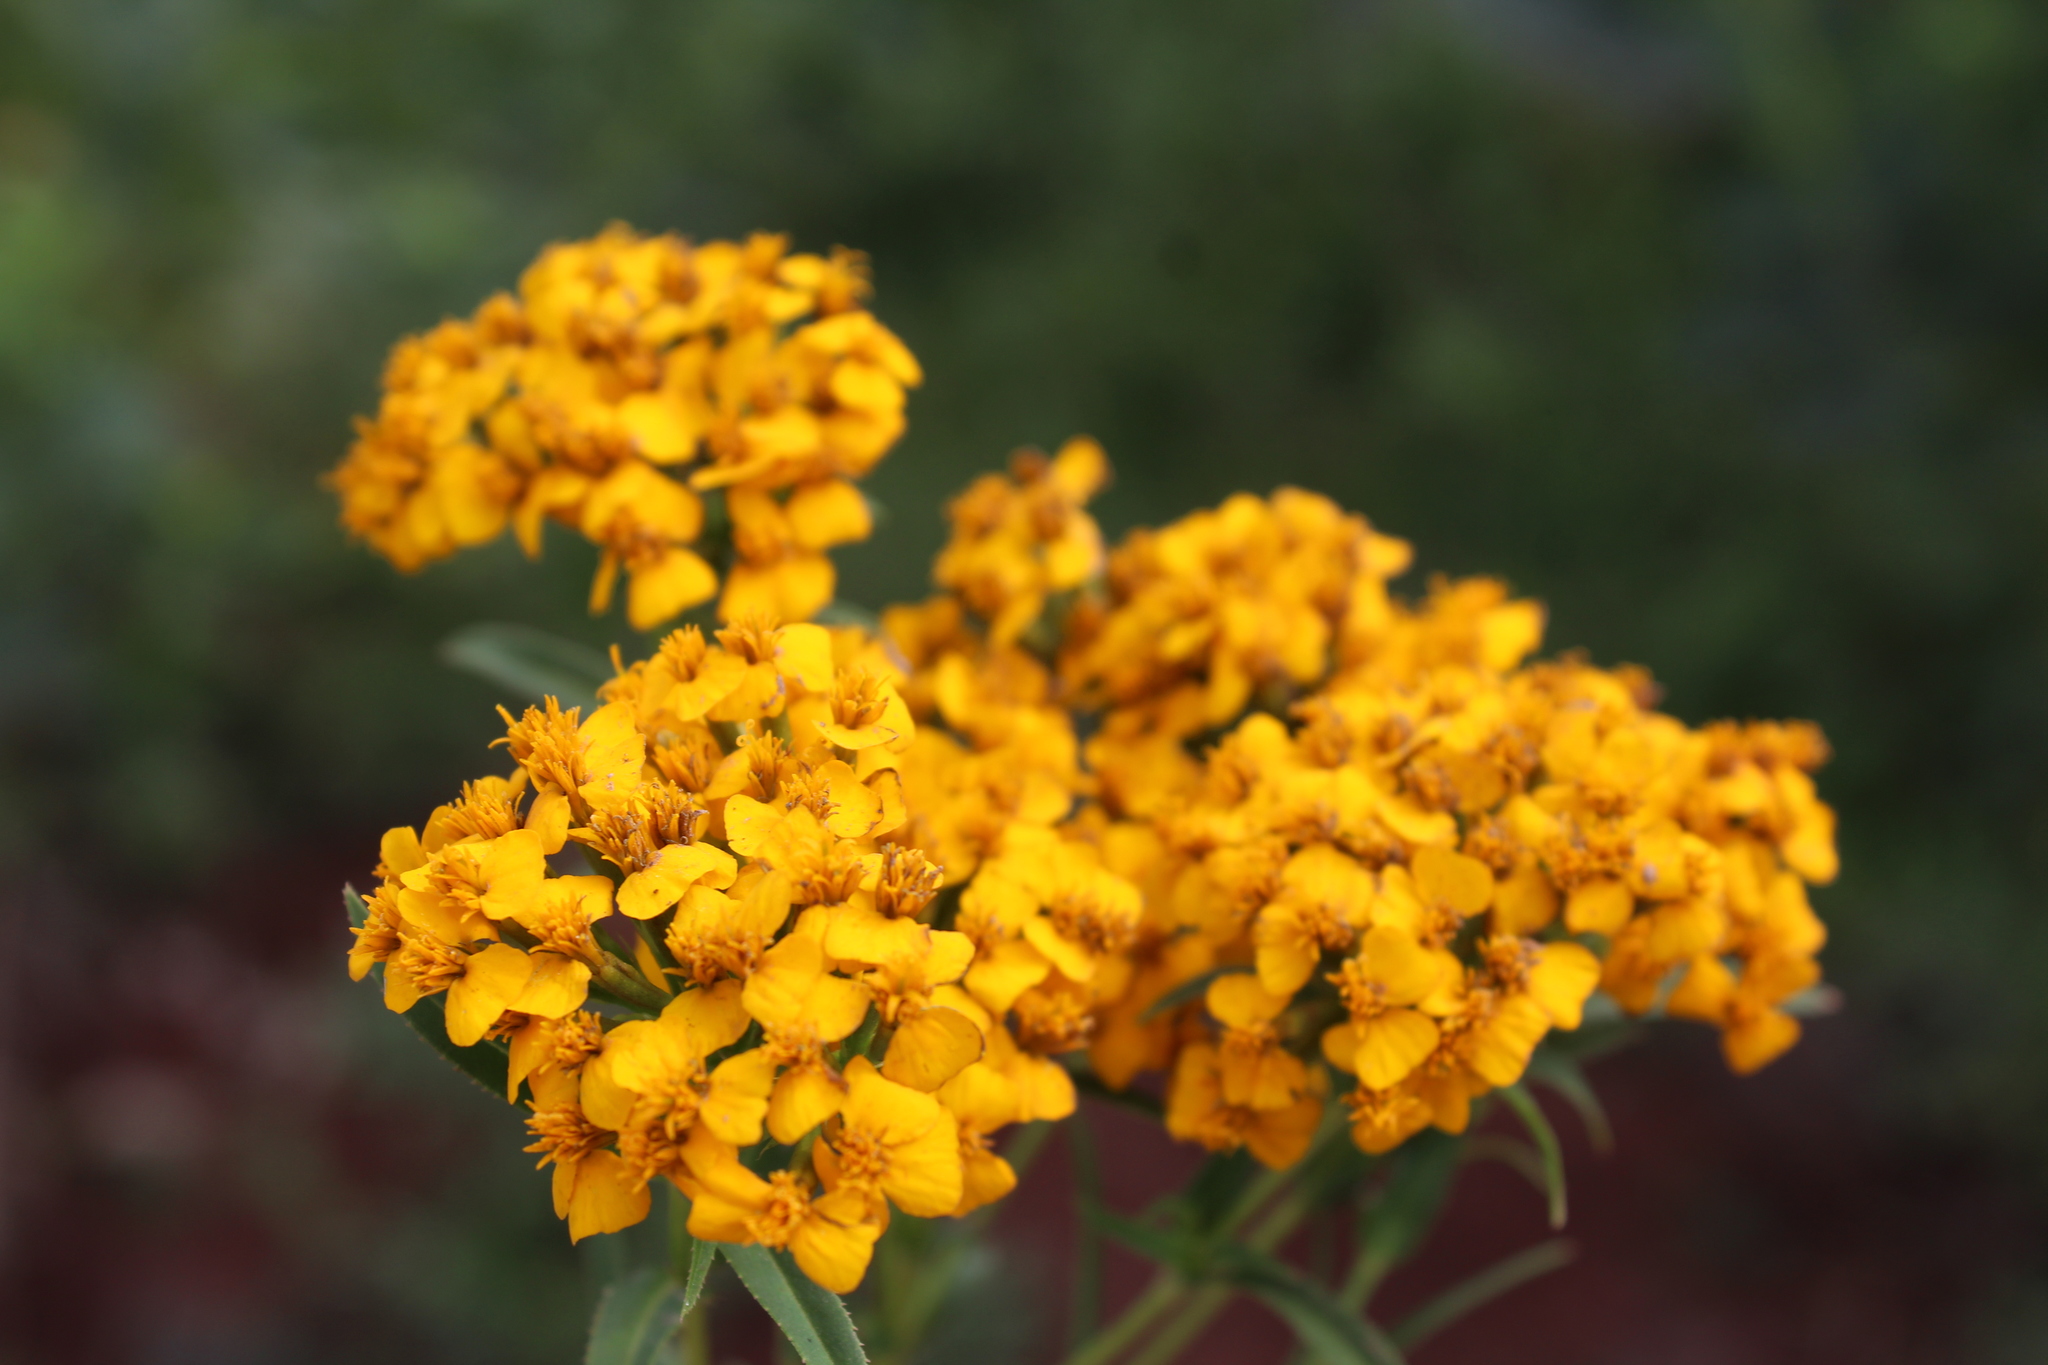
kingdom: Plantae
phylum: Tracheophyta
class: Magnoliopsida
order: Asterales
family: Asteraceae
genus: Tagetes
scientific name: Tagetes lucida
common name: Sweetscented marigold
